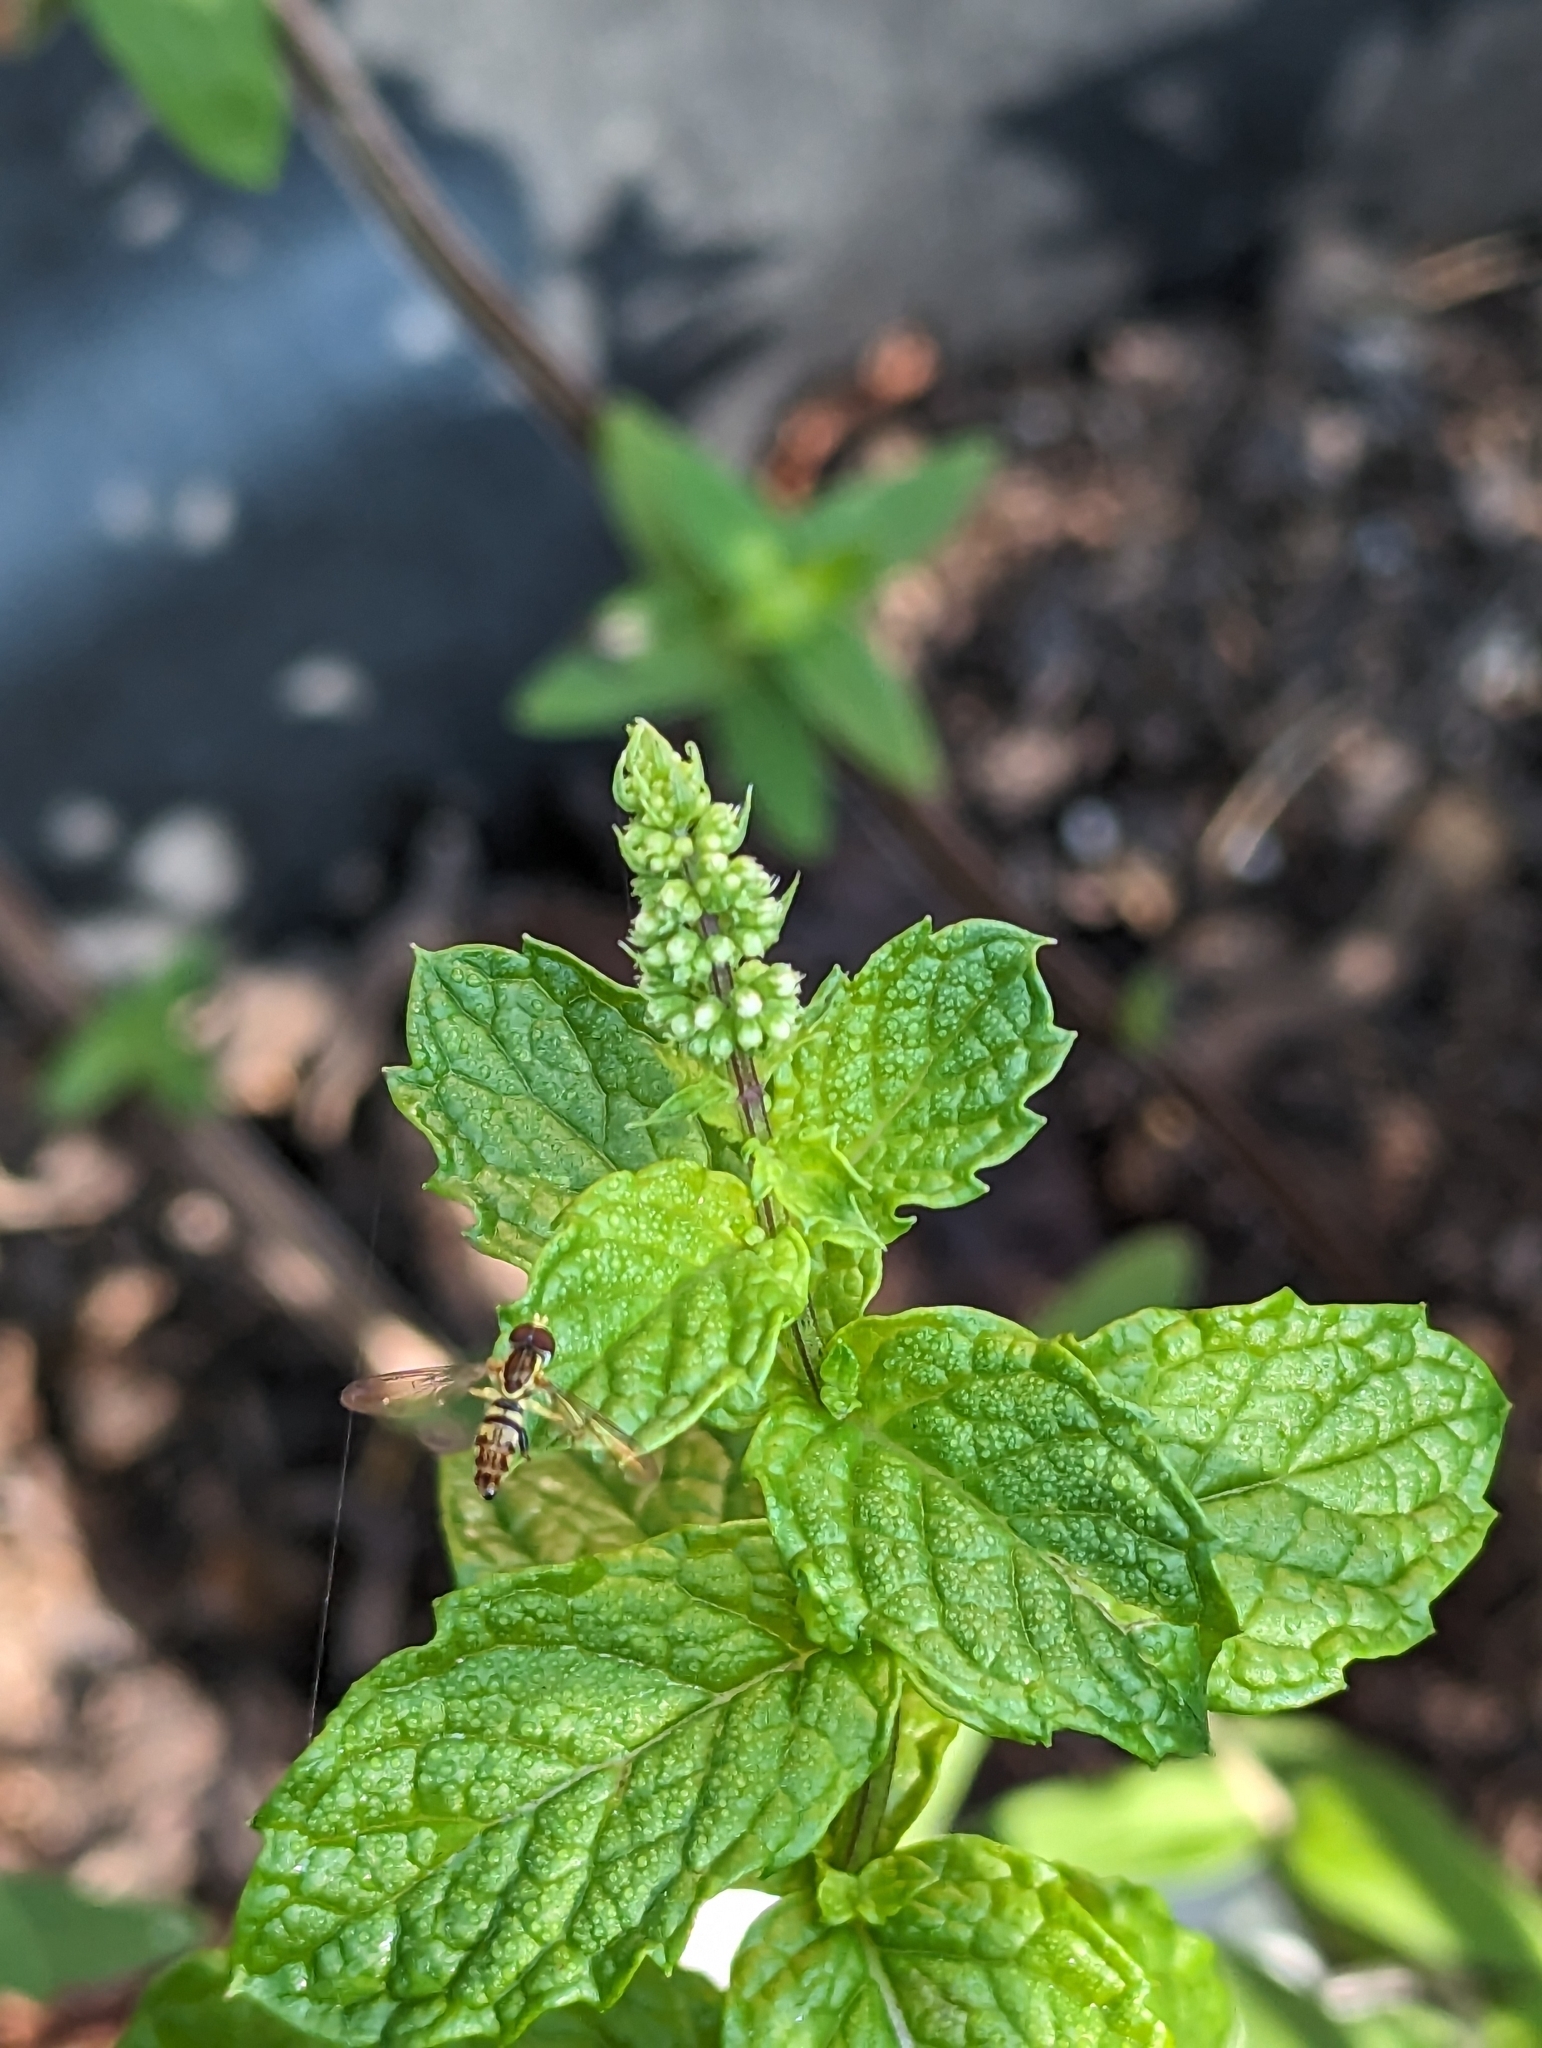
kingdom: Animalia
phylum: Arthropoda
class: Insecta
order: Diptera
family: Syrphidae
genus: Toxomerus
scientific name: Toxomerus geminatus
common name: Eastern calligrapher
